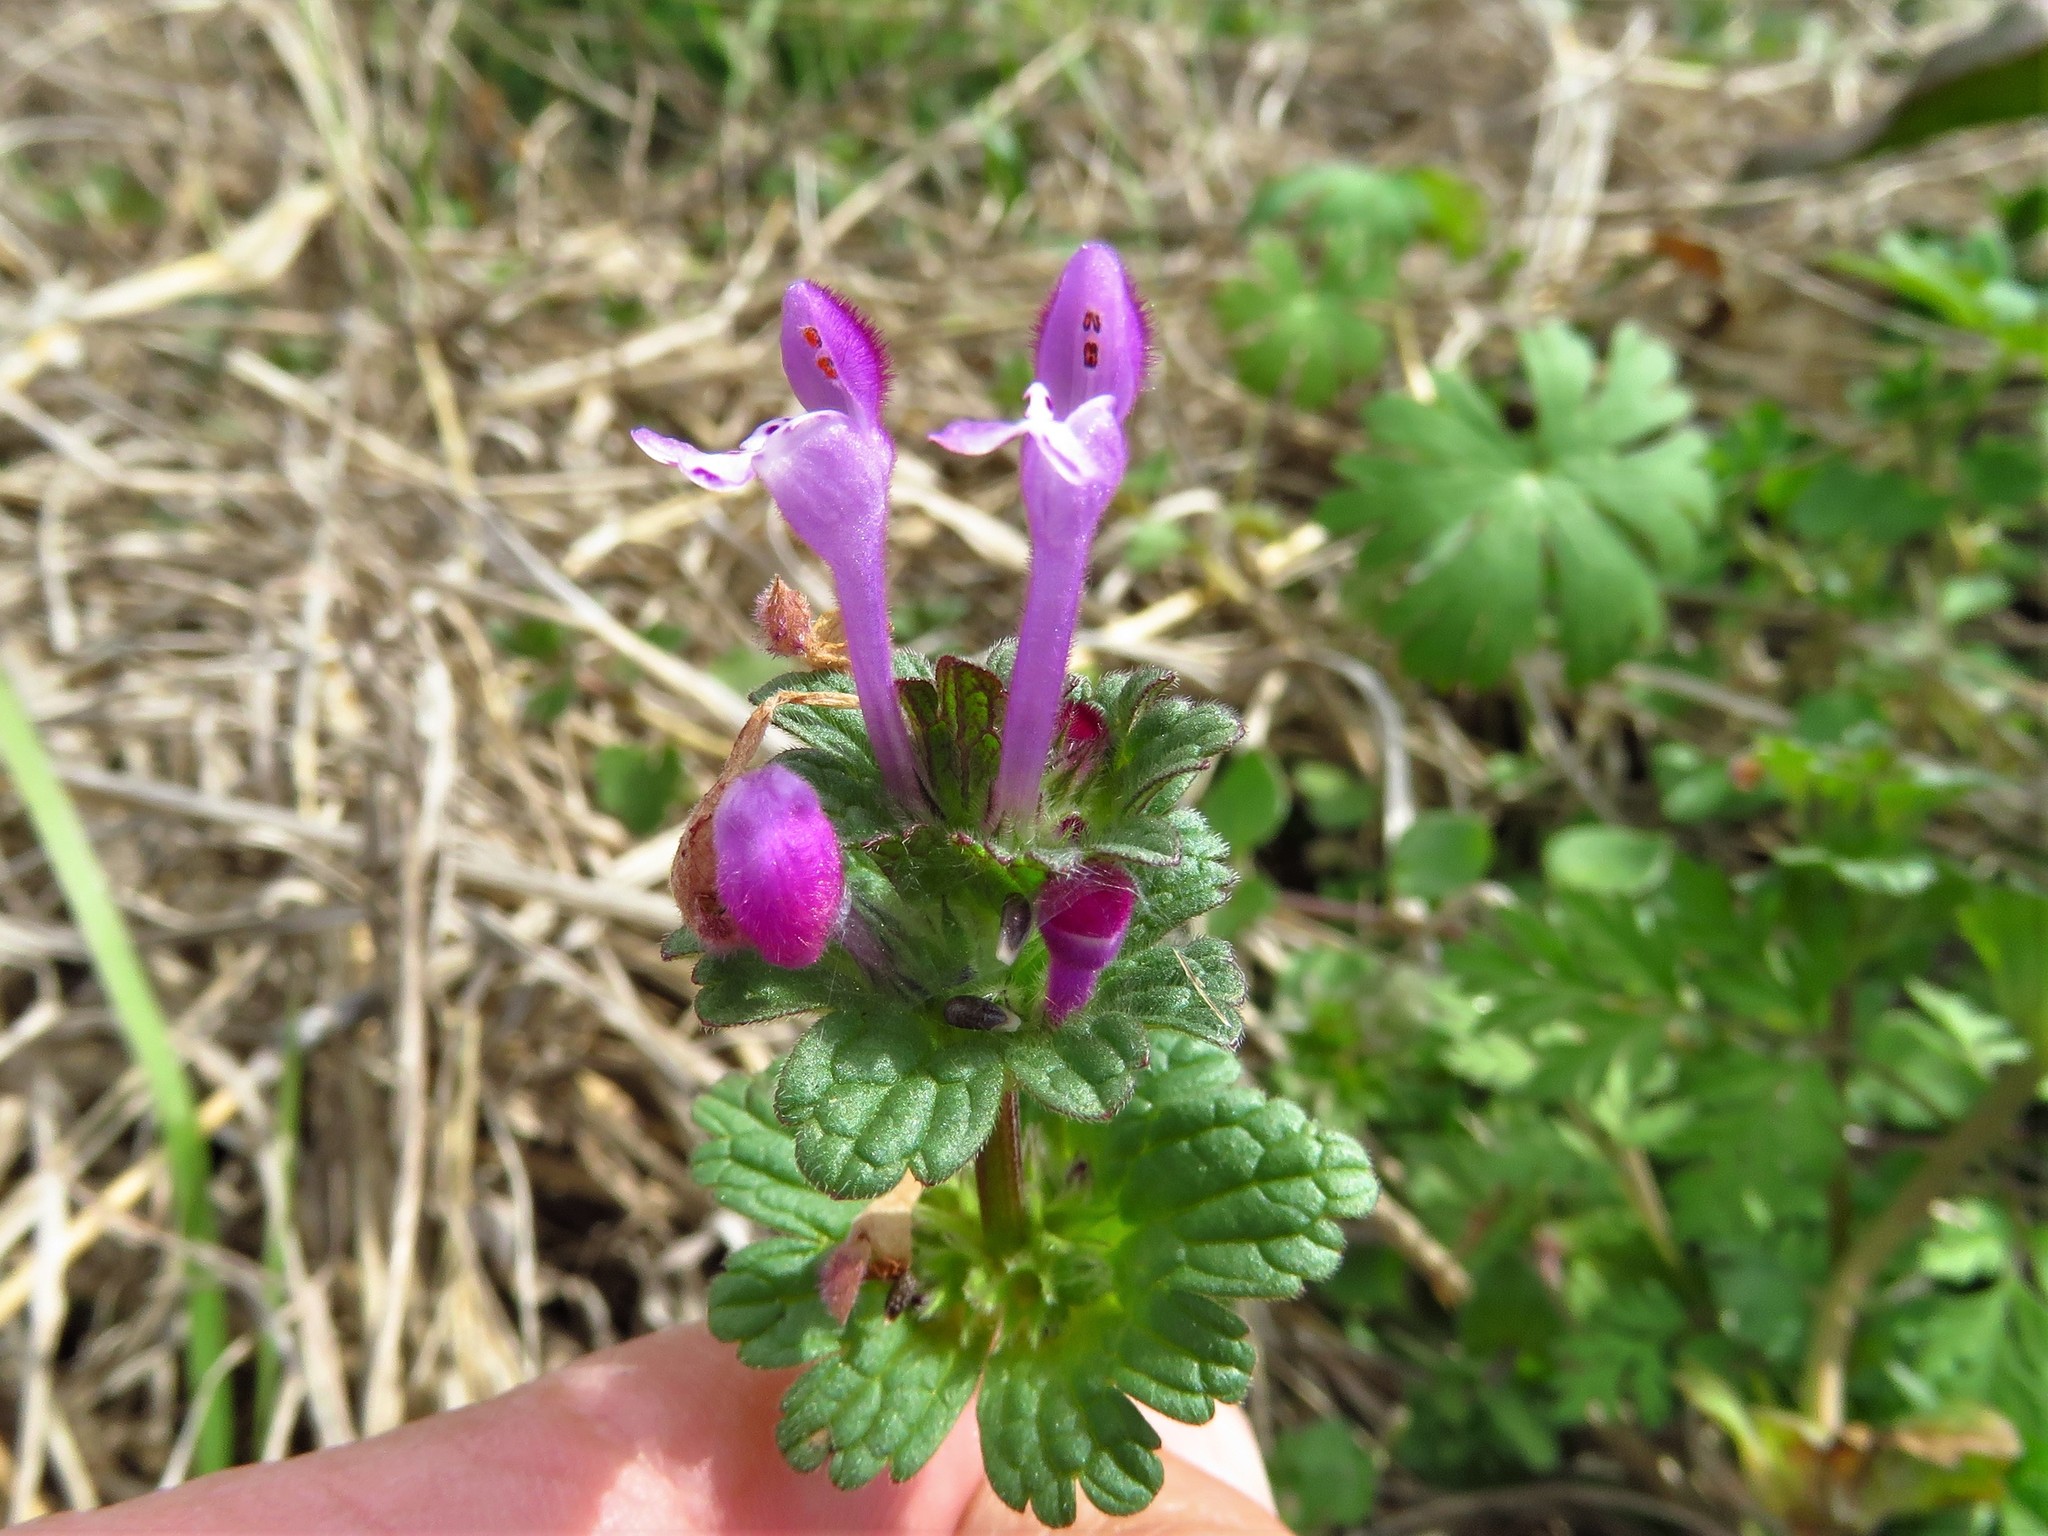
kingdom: Plantae
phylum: Tracheophyta
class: Magnoliopsida
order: Lamiales
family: Lamiaceae
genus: Lamium
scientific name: Lamium amplexicaule
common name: Henbit dead-nettle
